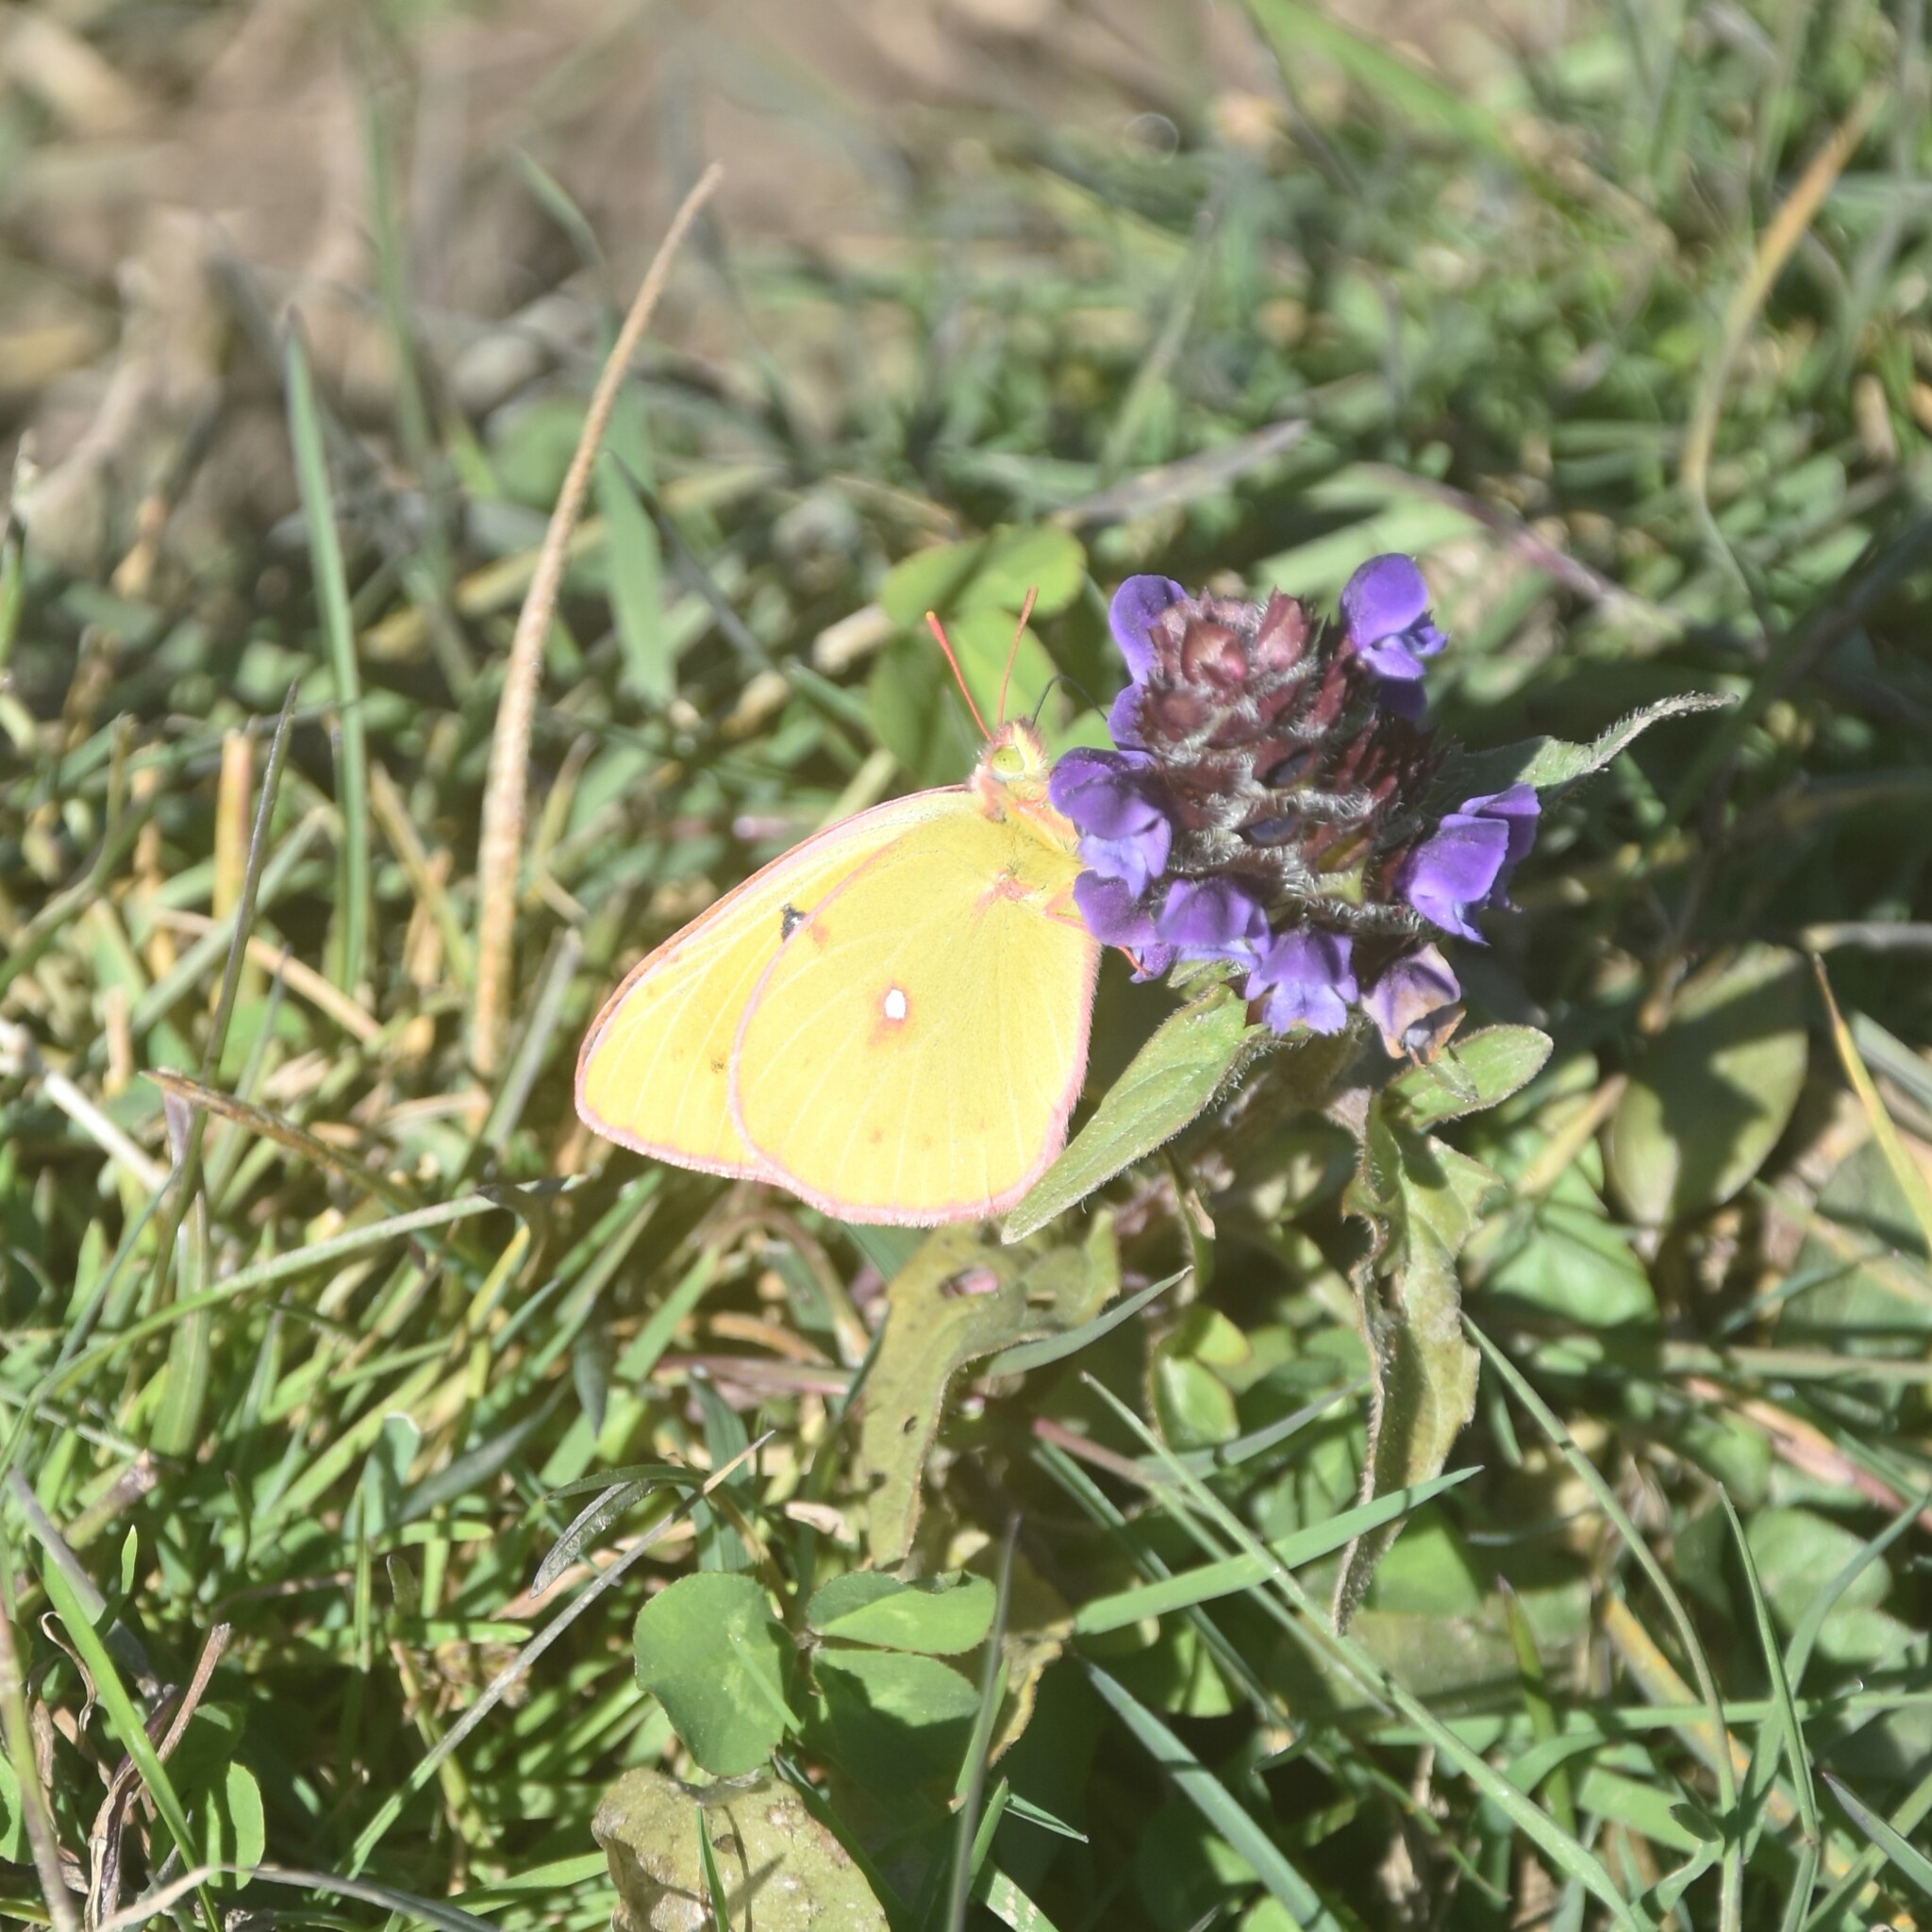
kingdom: Animalia
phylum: Arthropoda
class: Insecta
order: Lepidoptera
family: Pieridae
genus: Colias
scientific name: Colias fieldii
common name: Dark clouded yellow
